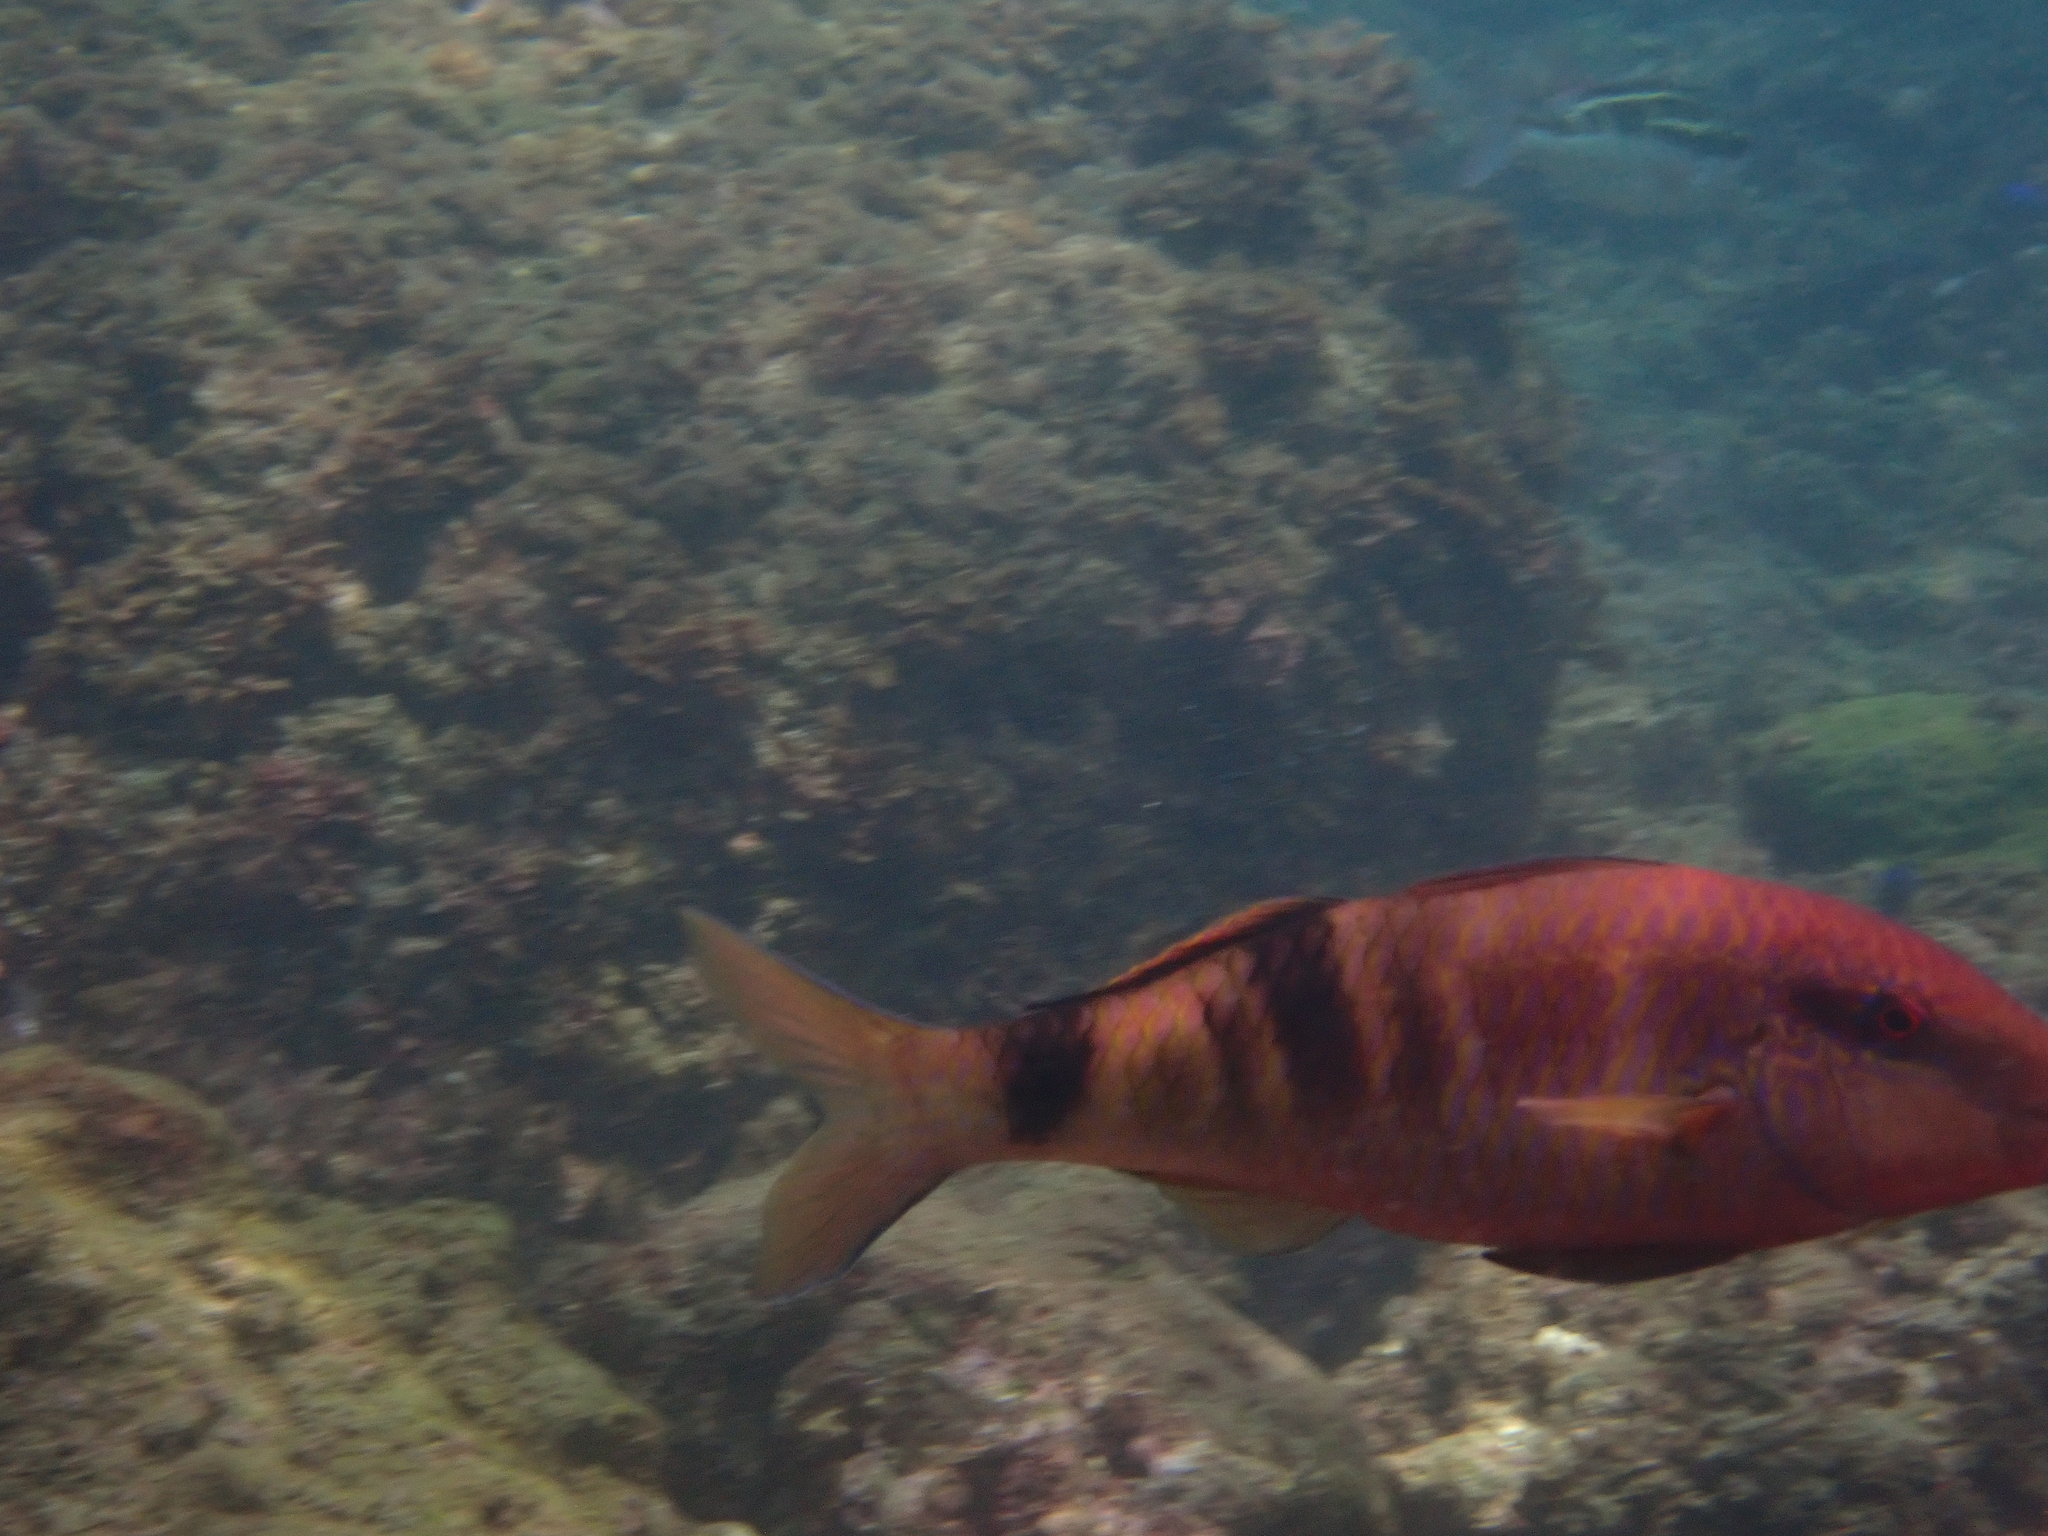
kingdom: Animalia
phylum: Chordata
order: Perciformes
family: Mullidae
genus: Parupeneus
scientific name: Parupeneus multifasciatus
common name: Manybar goatfish
